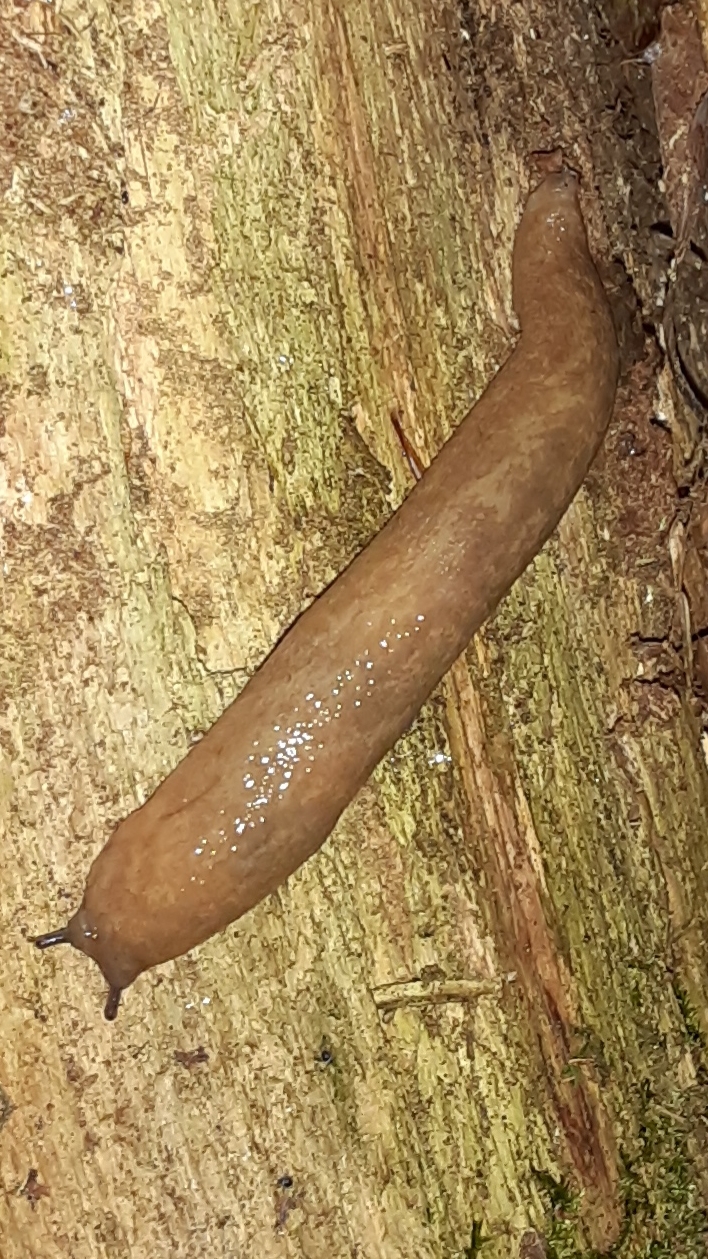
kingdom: Animalia
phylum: Mollusca
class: Gastropoda
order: Stylommatophora
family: Philomycidae
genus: Philomycus
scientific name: Philomycus flexuolaris
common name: Winding mantleslug
